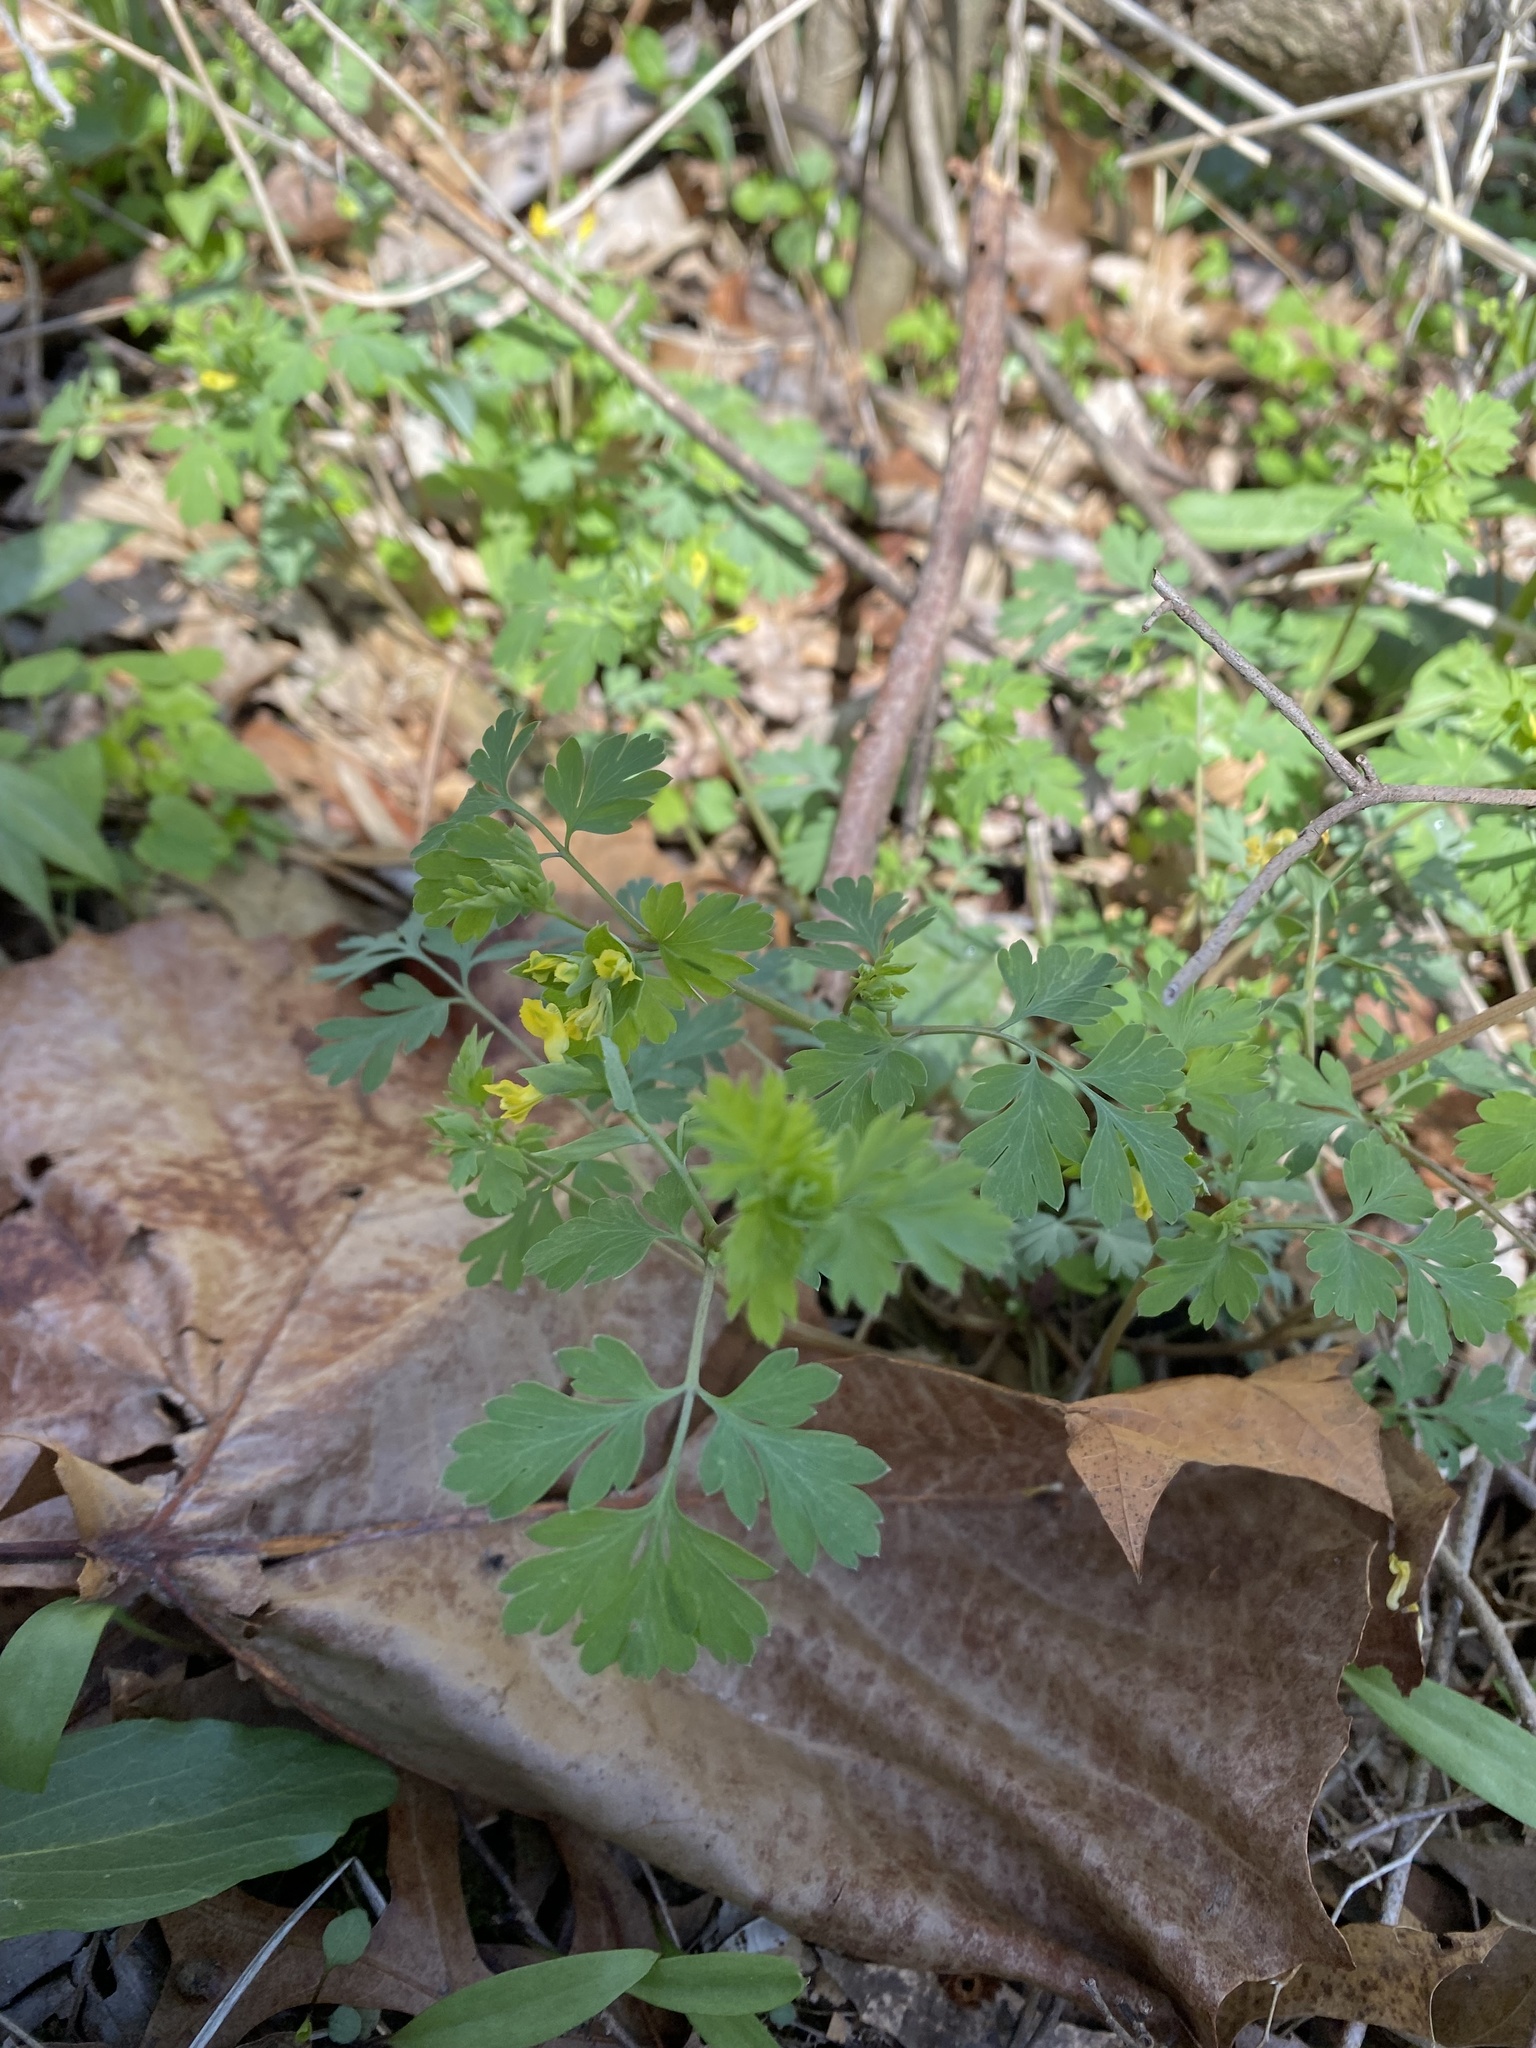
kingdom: Plantae
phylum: Tracheophyta
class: Magnoliopsida
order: Ranunculales
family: Papaveraceae
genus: Corydalis
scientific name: Corydalis flavula
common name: Yellow corydalis
